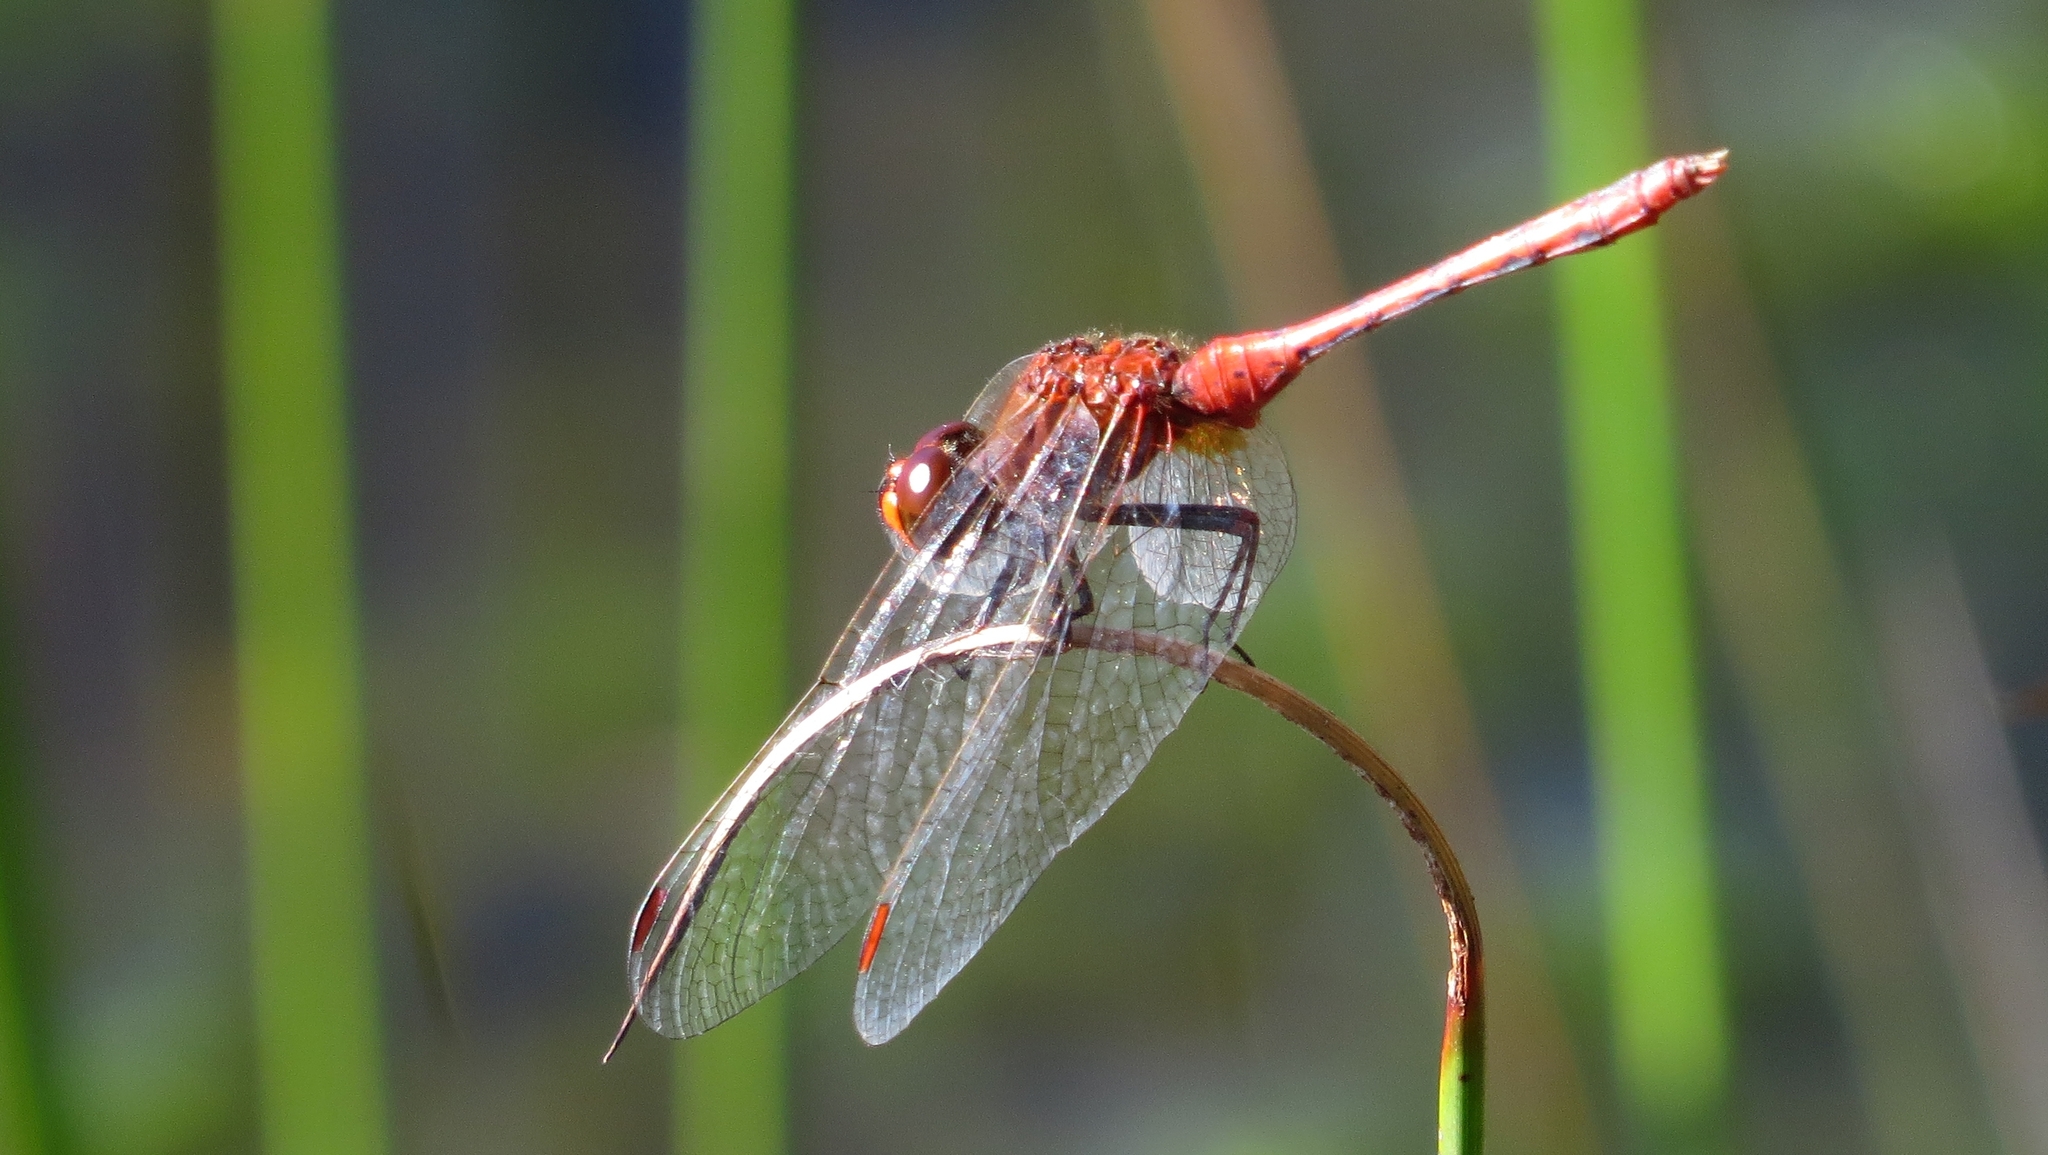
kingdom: Animalia
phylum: Arthropoda
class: Insecta
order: Odonata
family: Libellulidae
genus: Diplacodes
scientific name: Diplacodes bipunctata
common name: Red percher dragonfly
